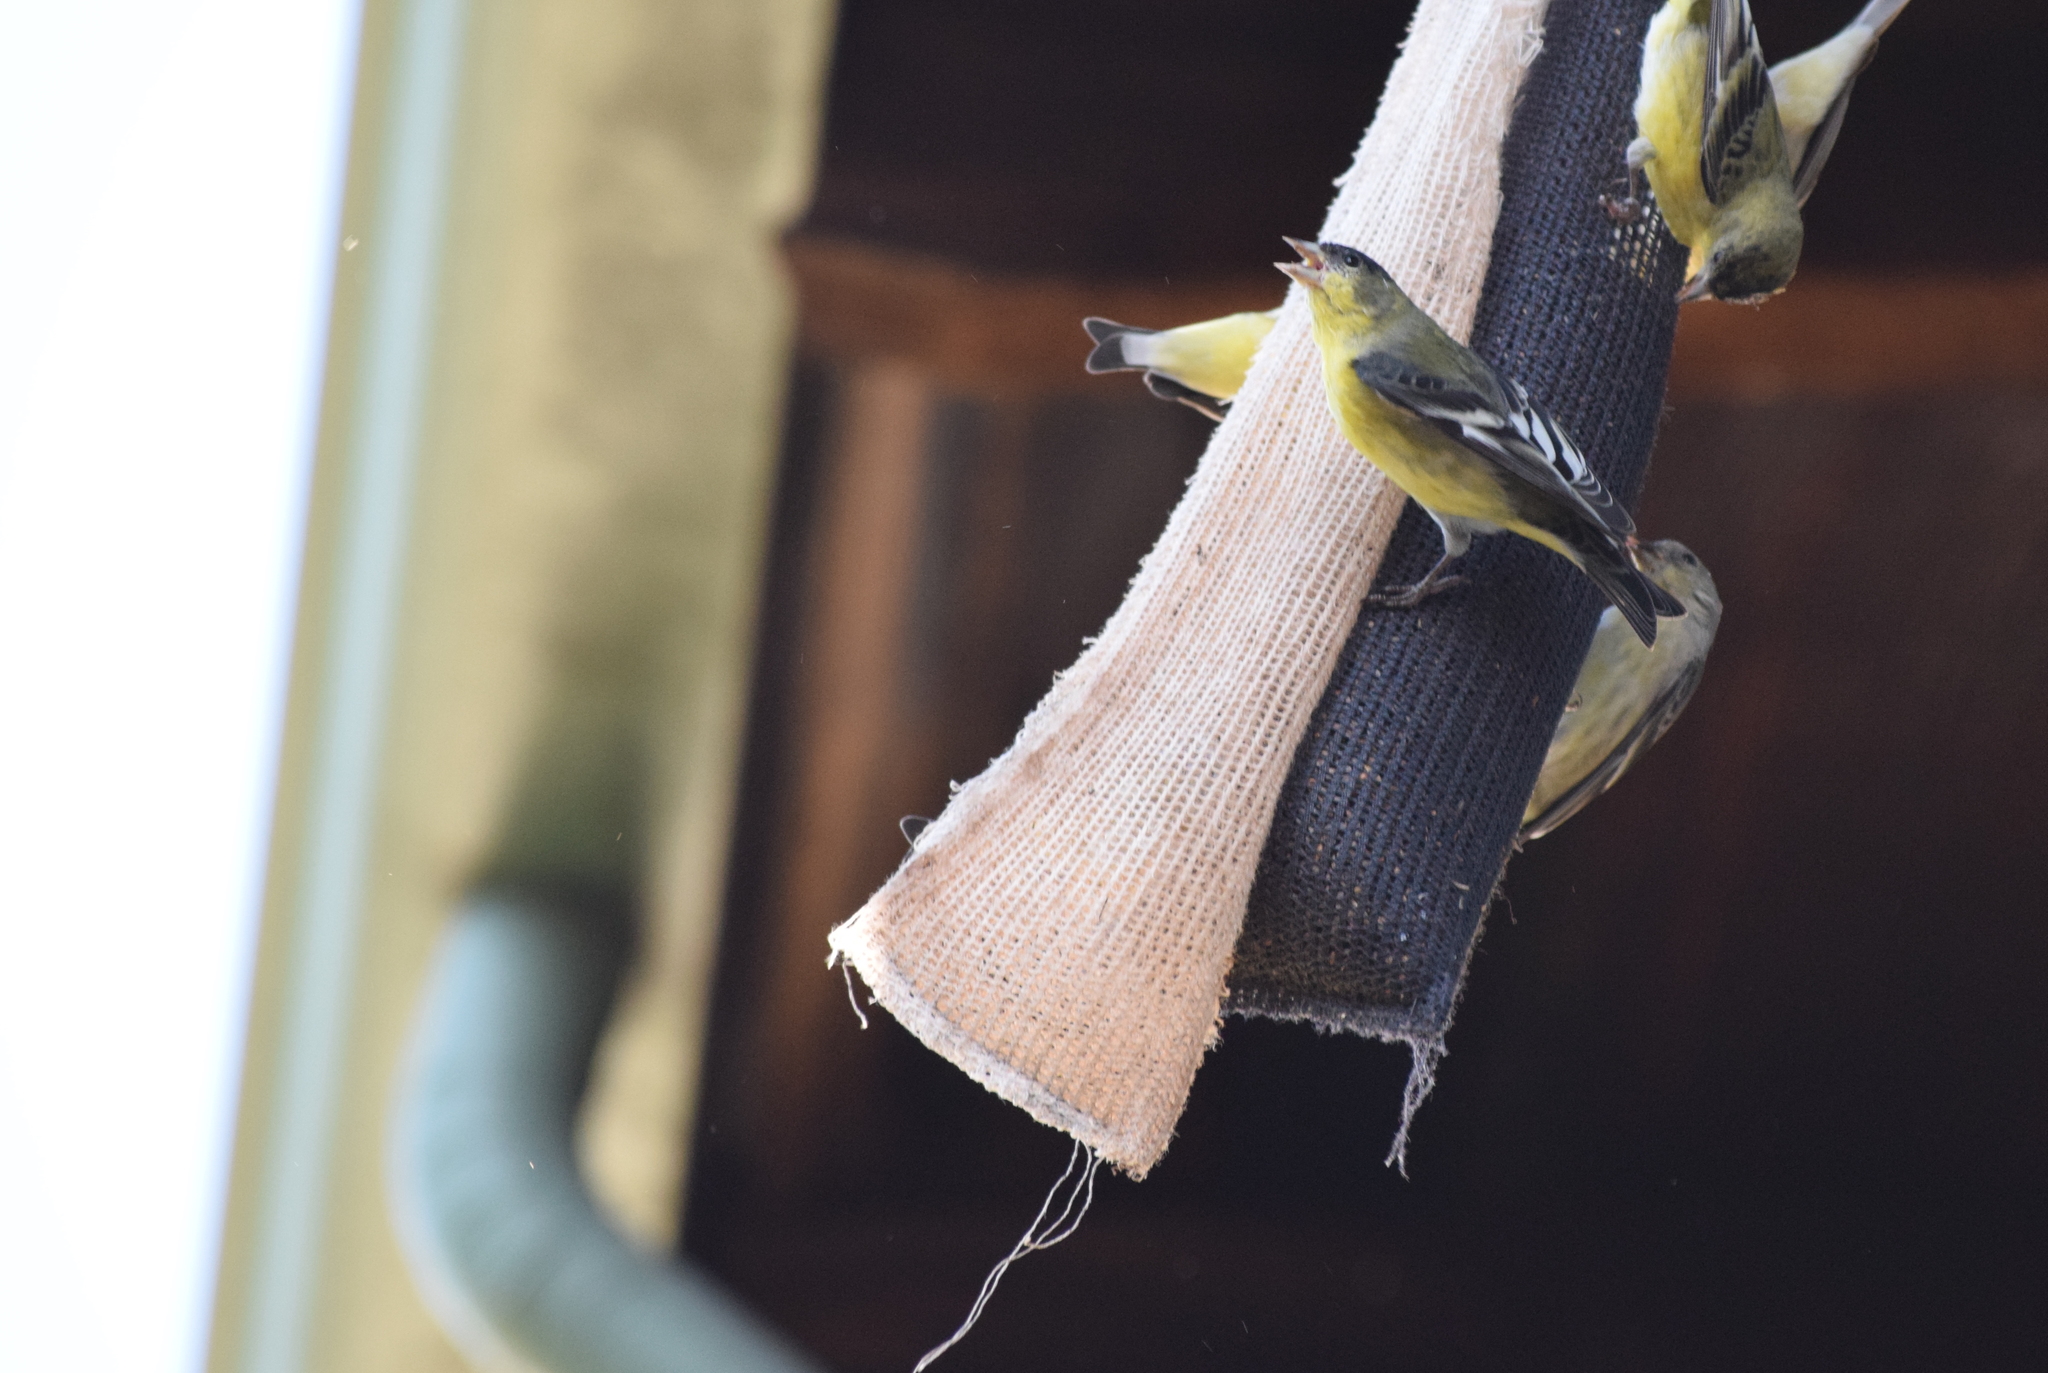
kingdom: Animalia
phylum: Chordata
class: Aves
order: Passeriformes
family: Fringillidae
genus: Spinus
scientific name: Spinus psaltria
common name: Lesser goldfinch
